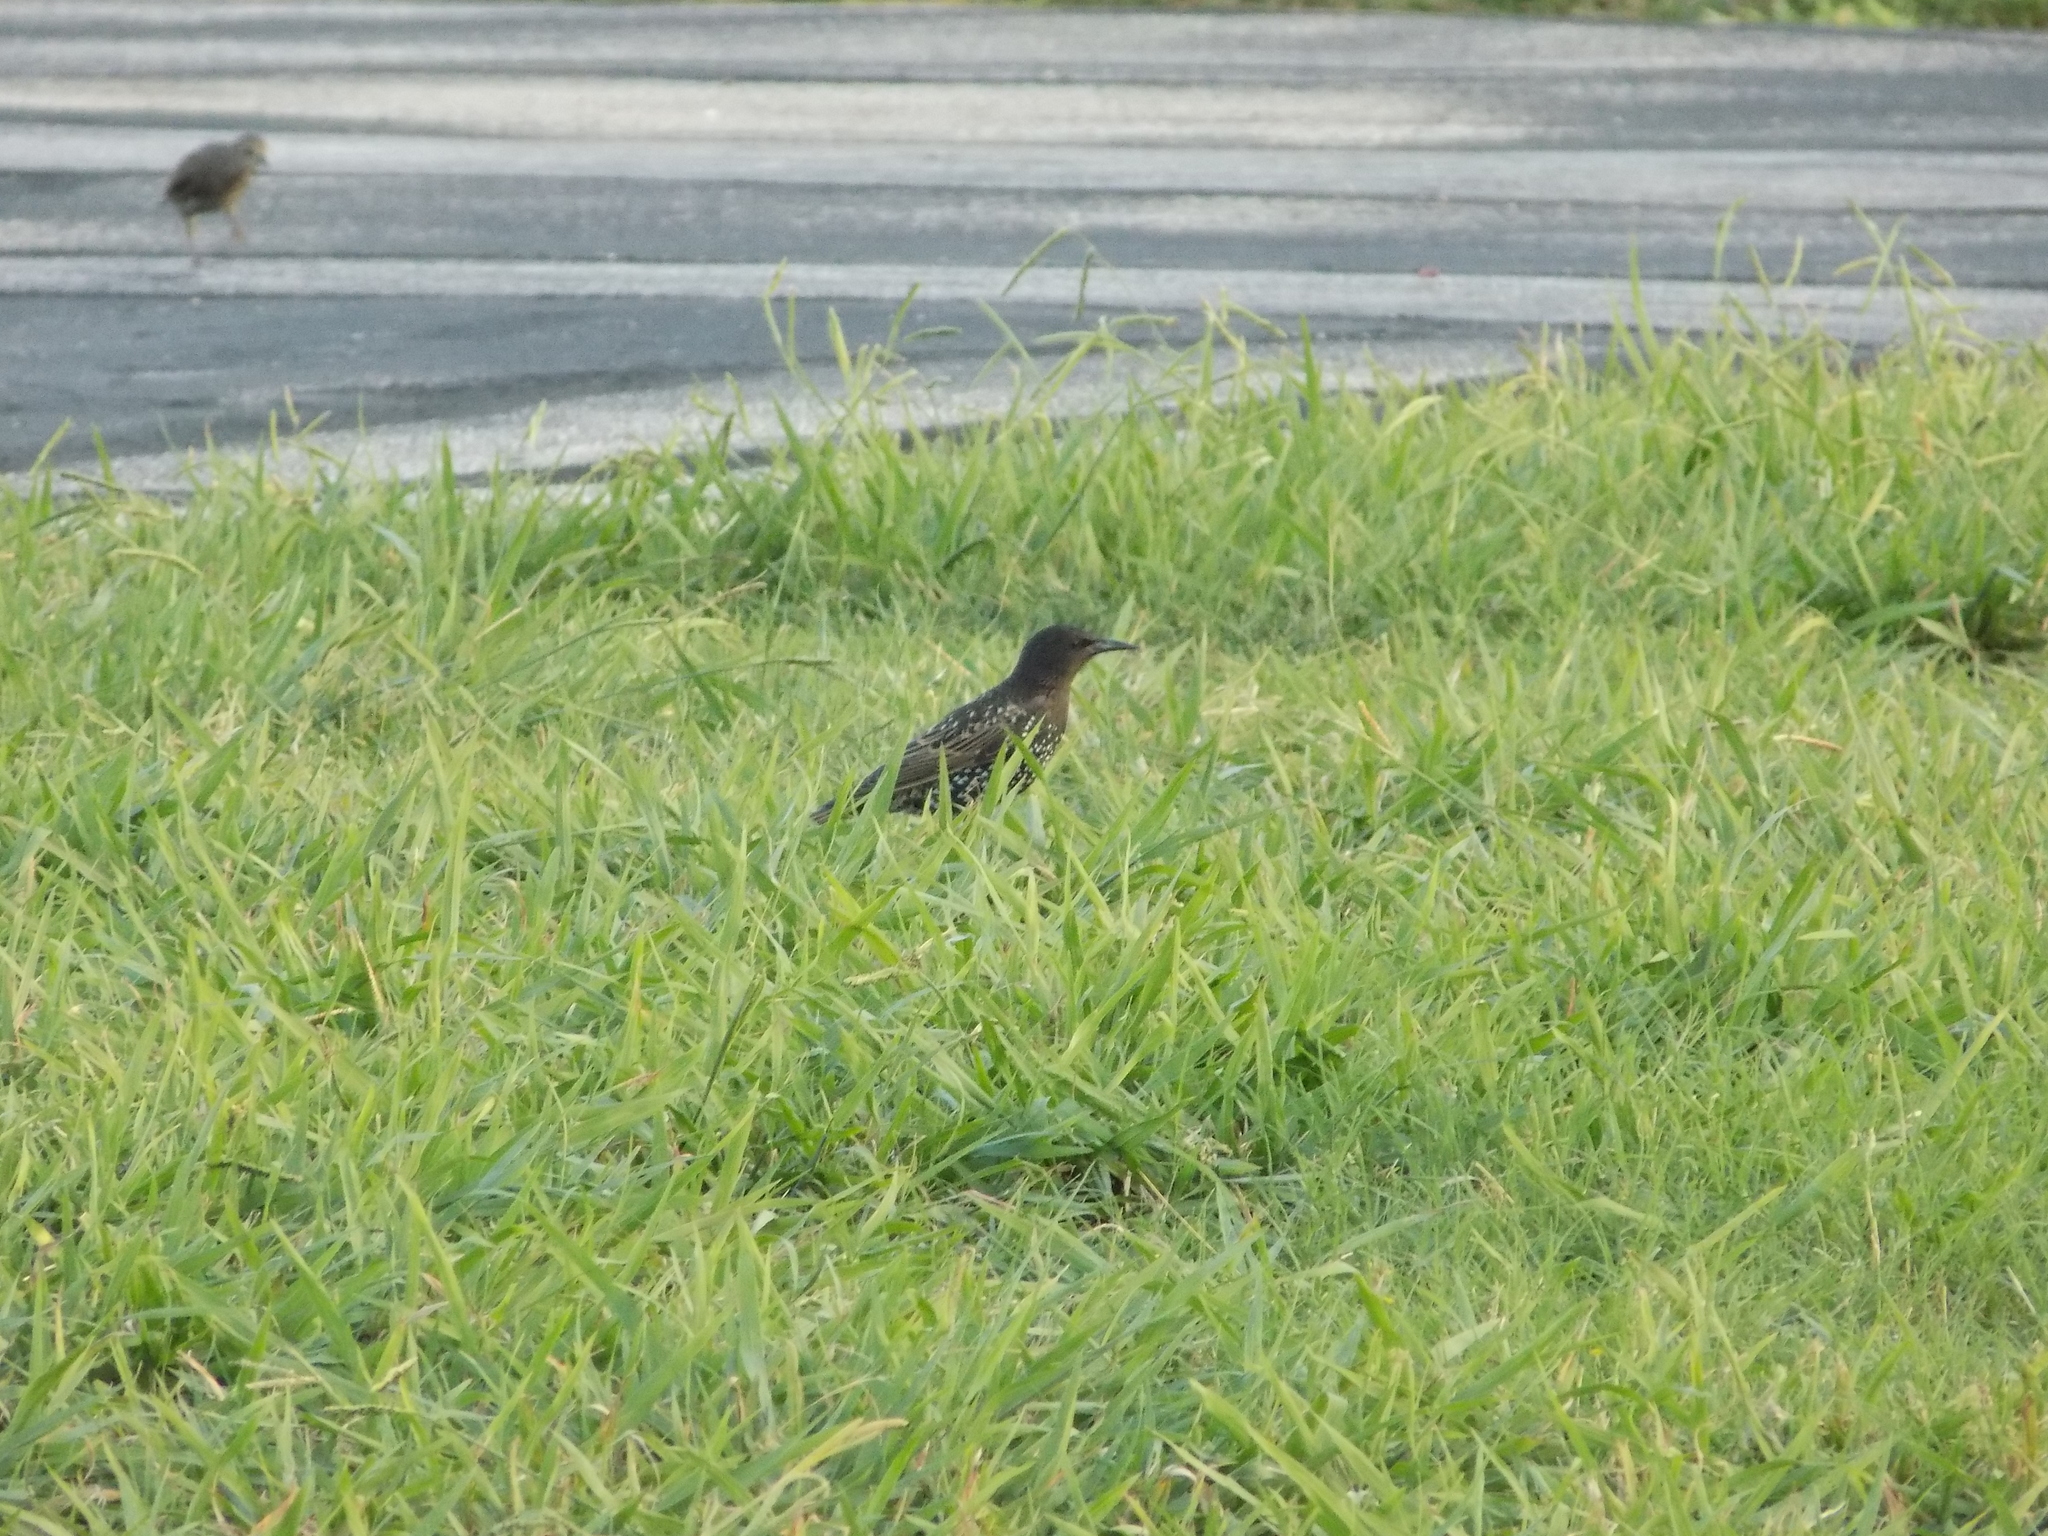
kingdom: Animalia
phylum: Chordata
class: Aves
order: Passeriformes
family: Sturnidae
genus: Sturnus
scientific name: Sturnus vulgaris
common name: Common starling
